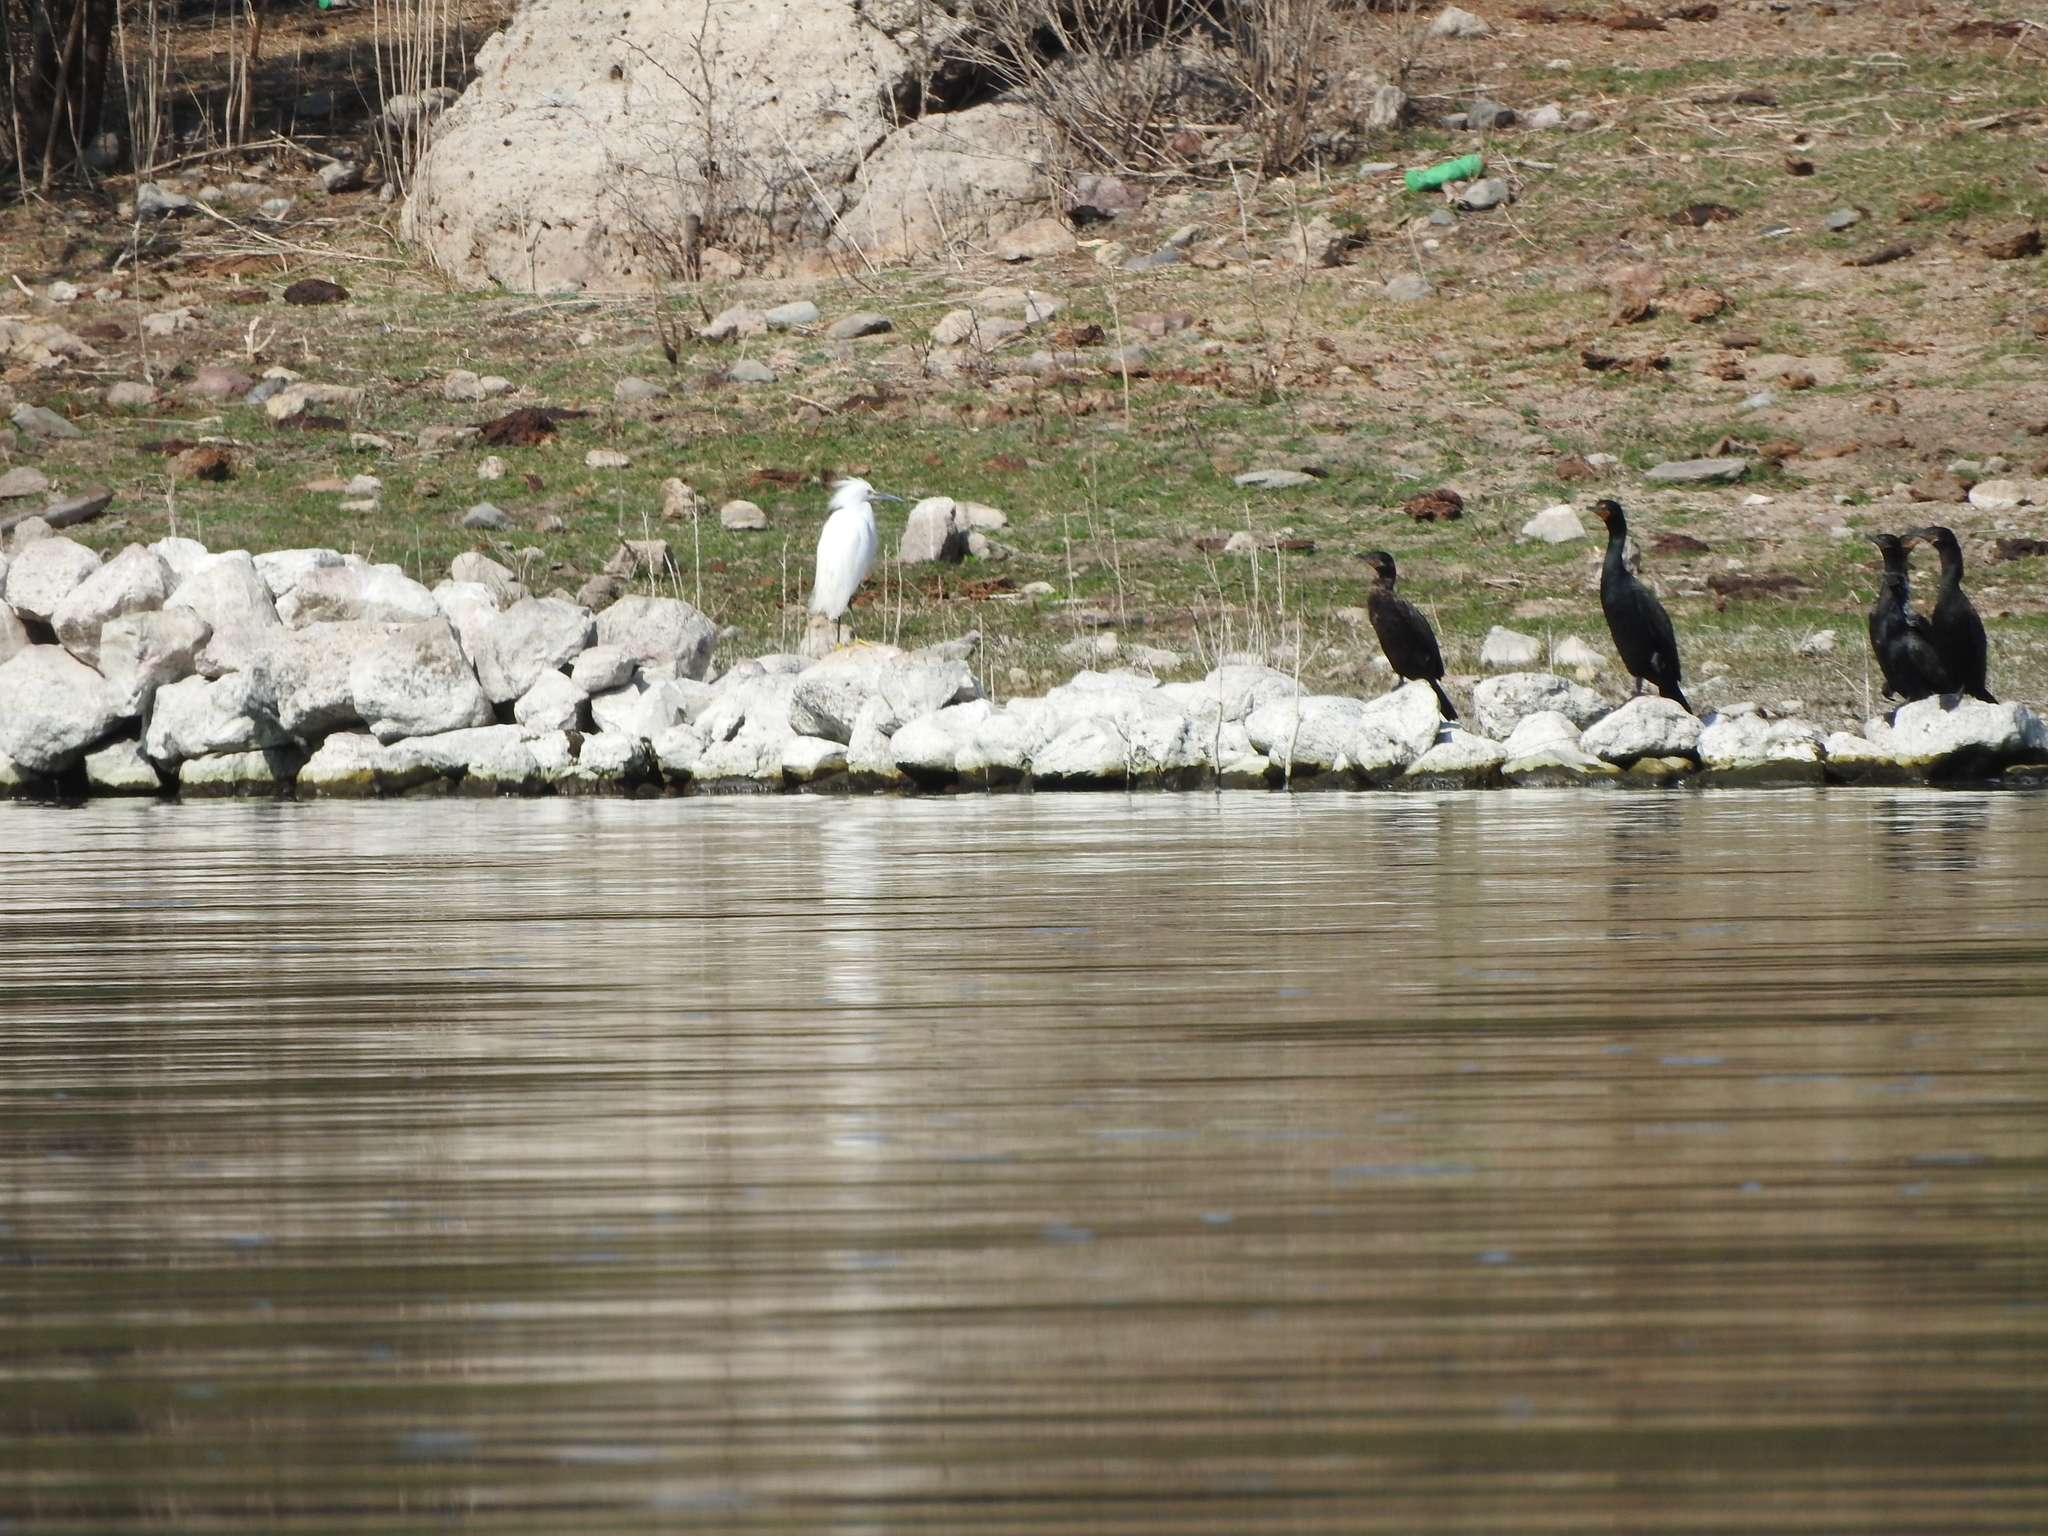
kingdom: Animalia
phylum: Chordata
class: Aves
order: Suliformes
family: Phalacrocoracidae
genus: Phalacrocorax
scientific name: Phalacrocorax auritus
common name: Double-crested cormorant
